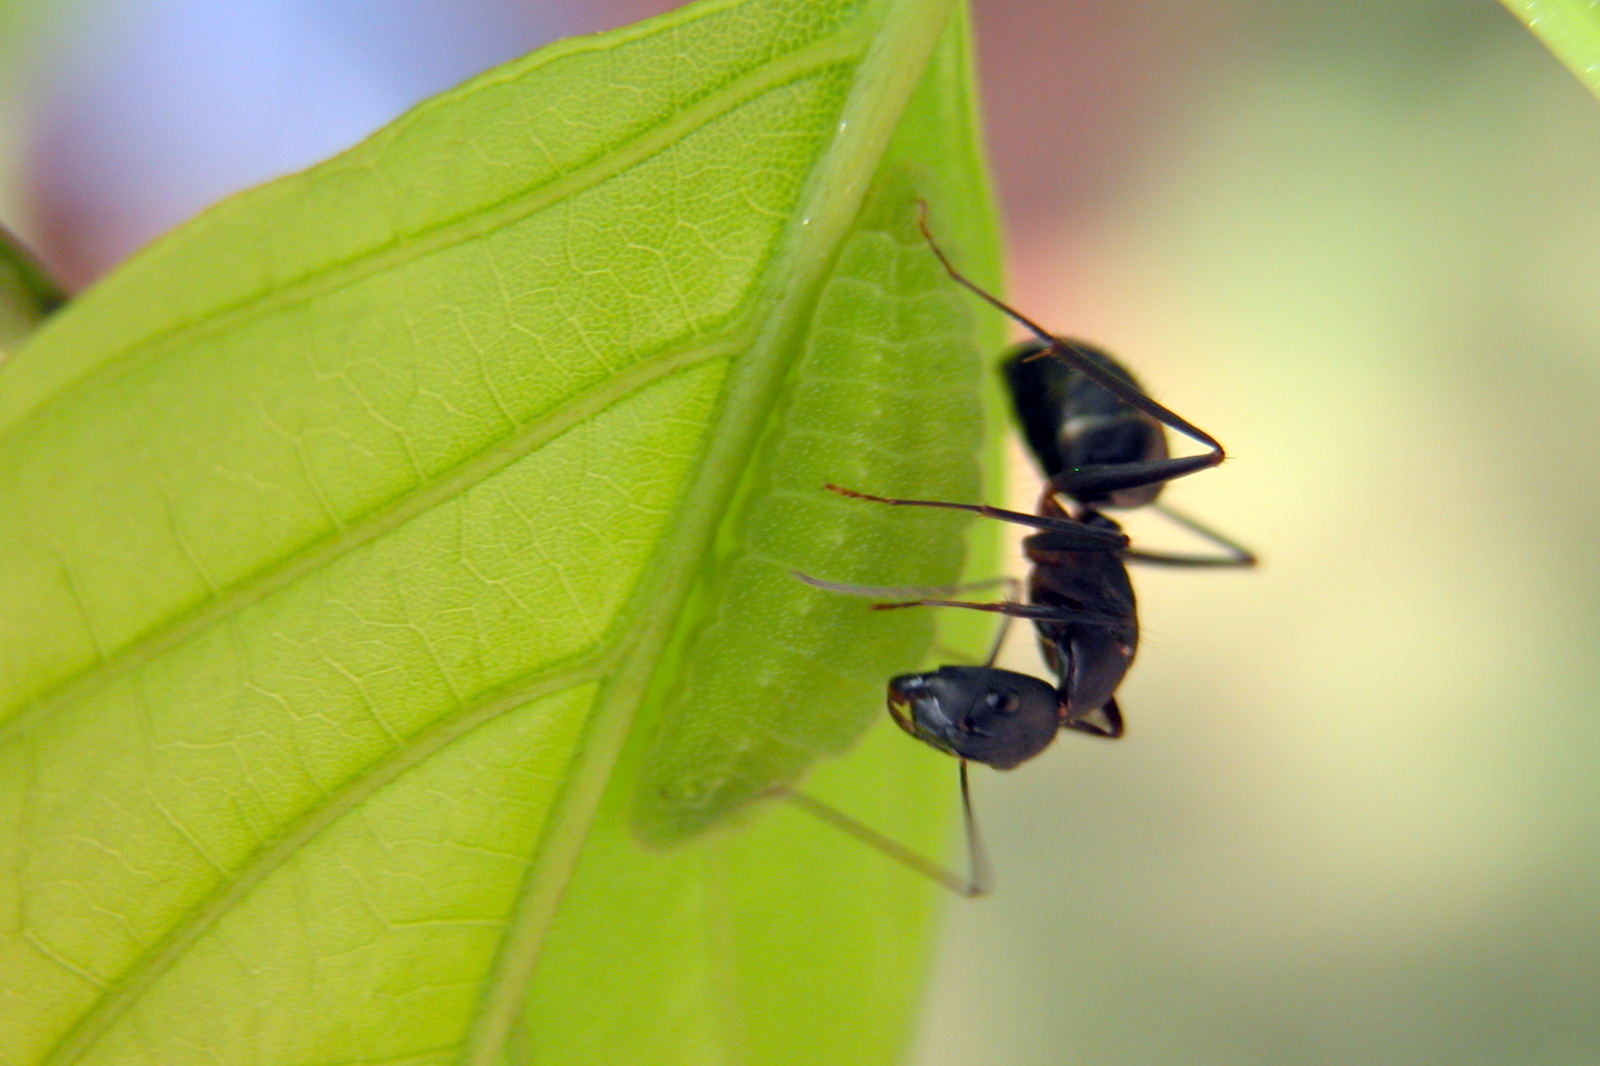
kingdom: Animalia
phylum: Arthropoda
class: Insecta
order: Hymenoptera
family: Formicidae
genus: Camponotus
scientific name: Camponotus compressus
